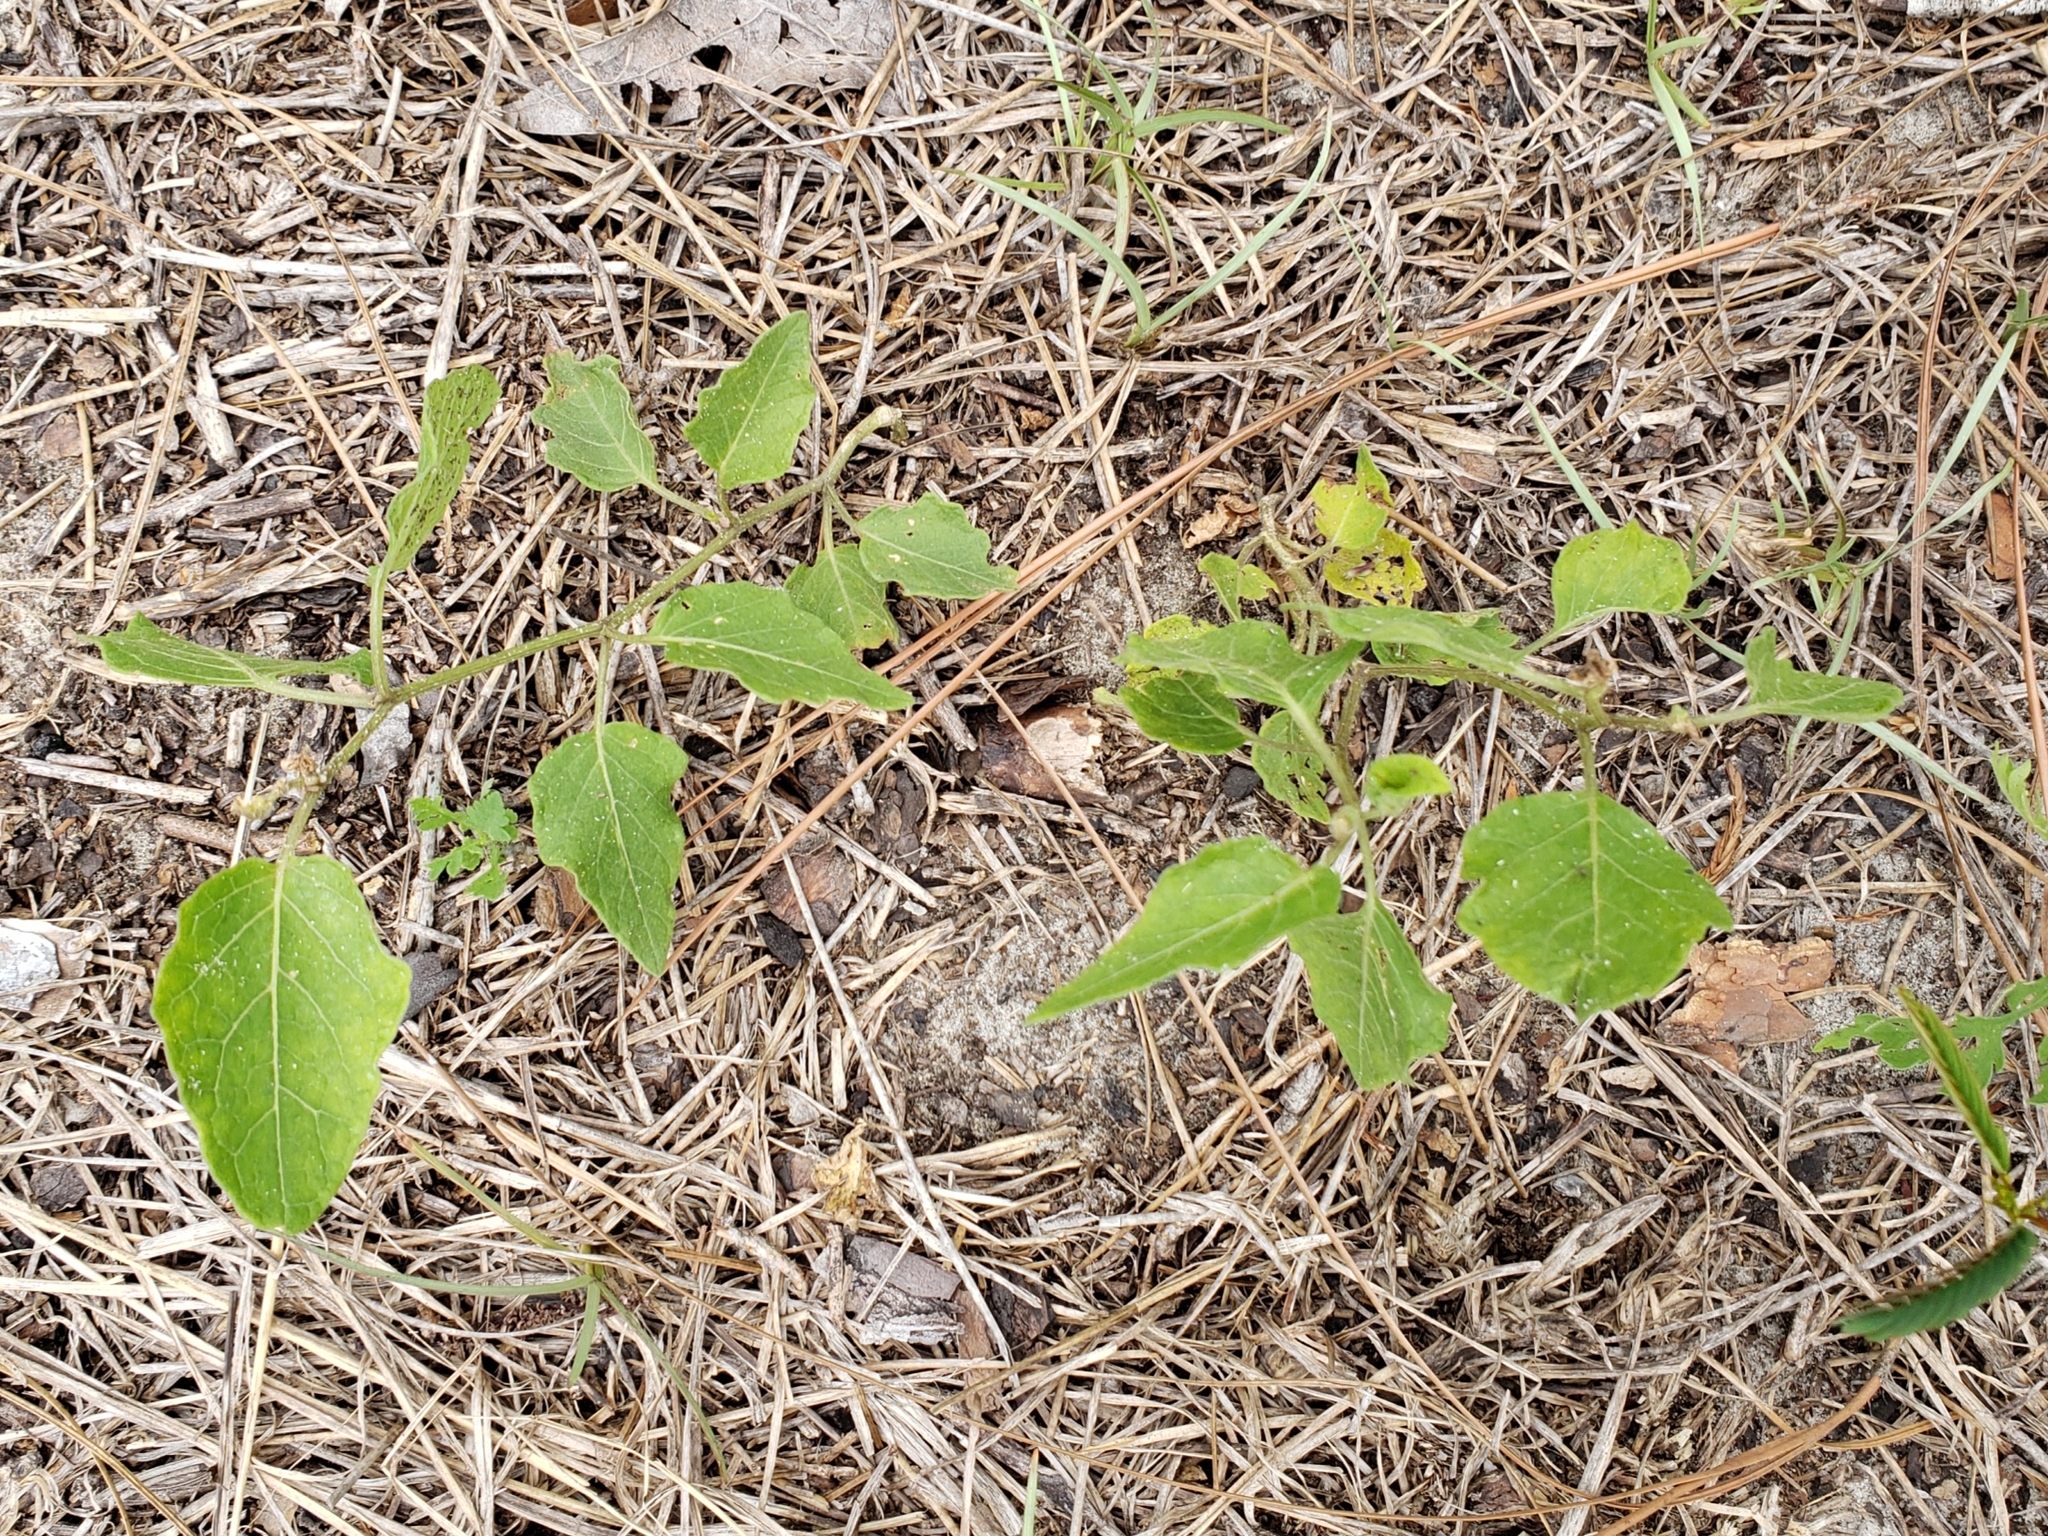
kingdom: Plantae
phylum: Tracheophyta
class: Magnoliopsida
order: Solanales
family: Solanaceae
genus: Physalis
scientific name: Physalis arenicola
